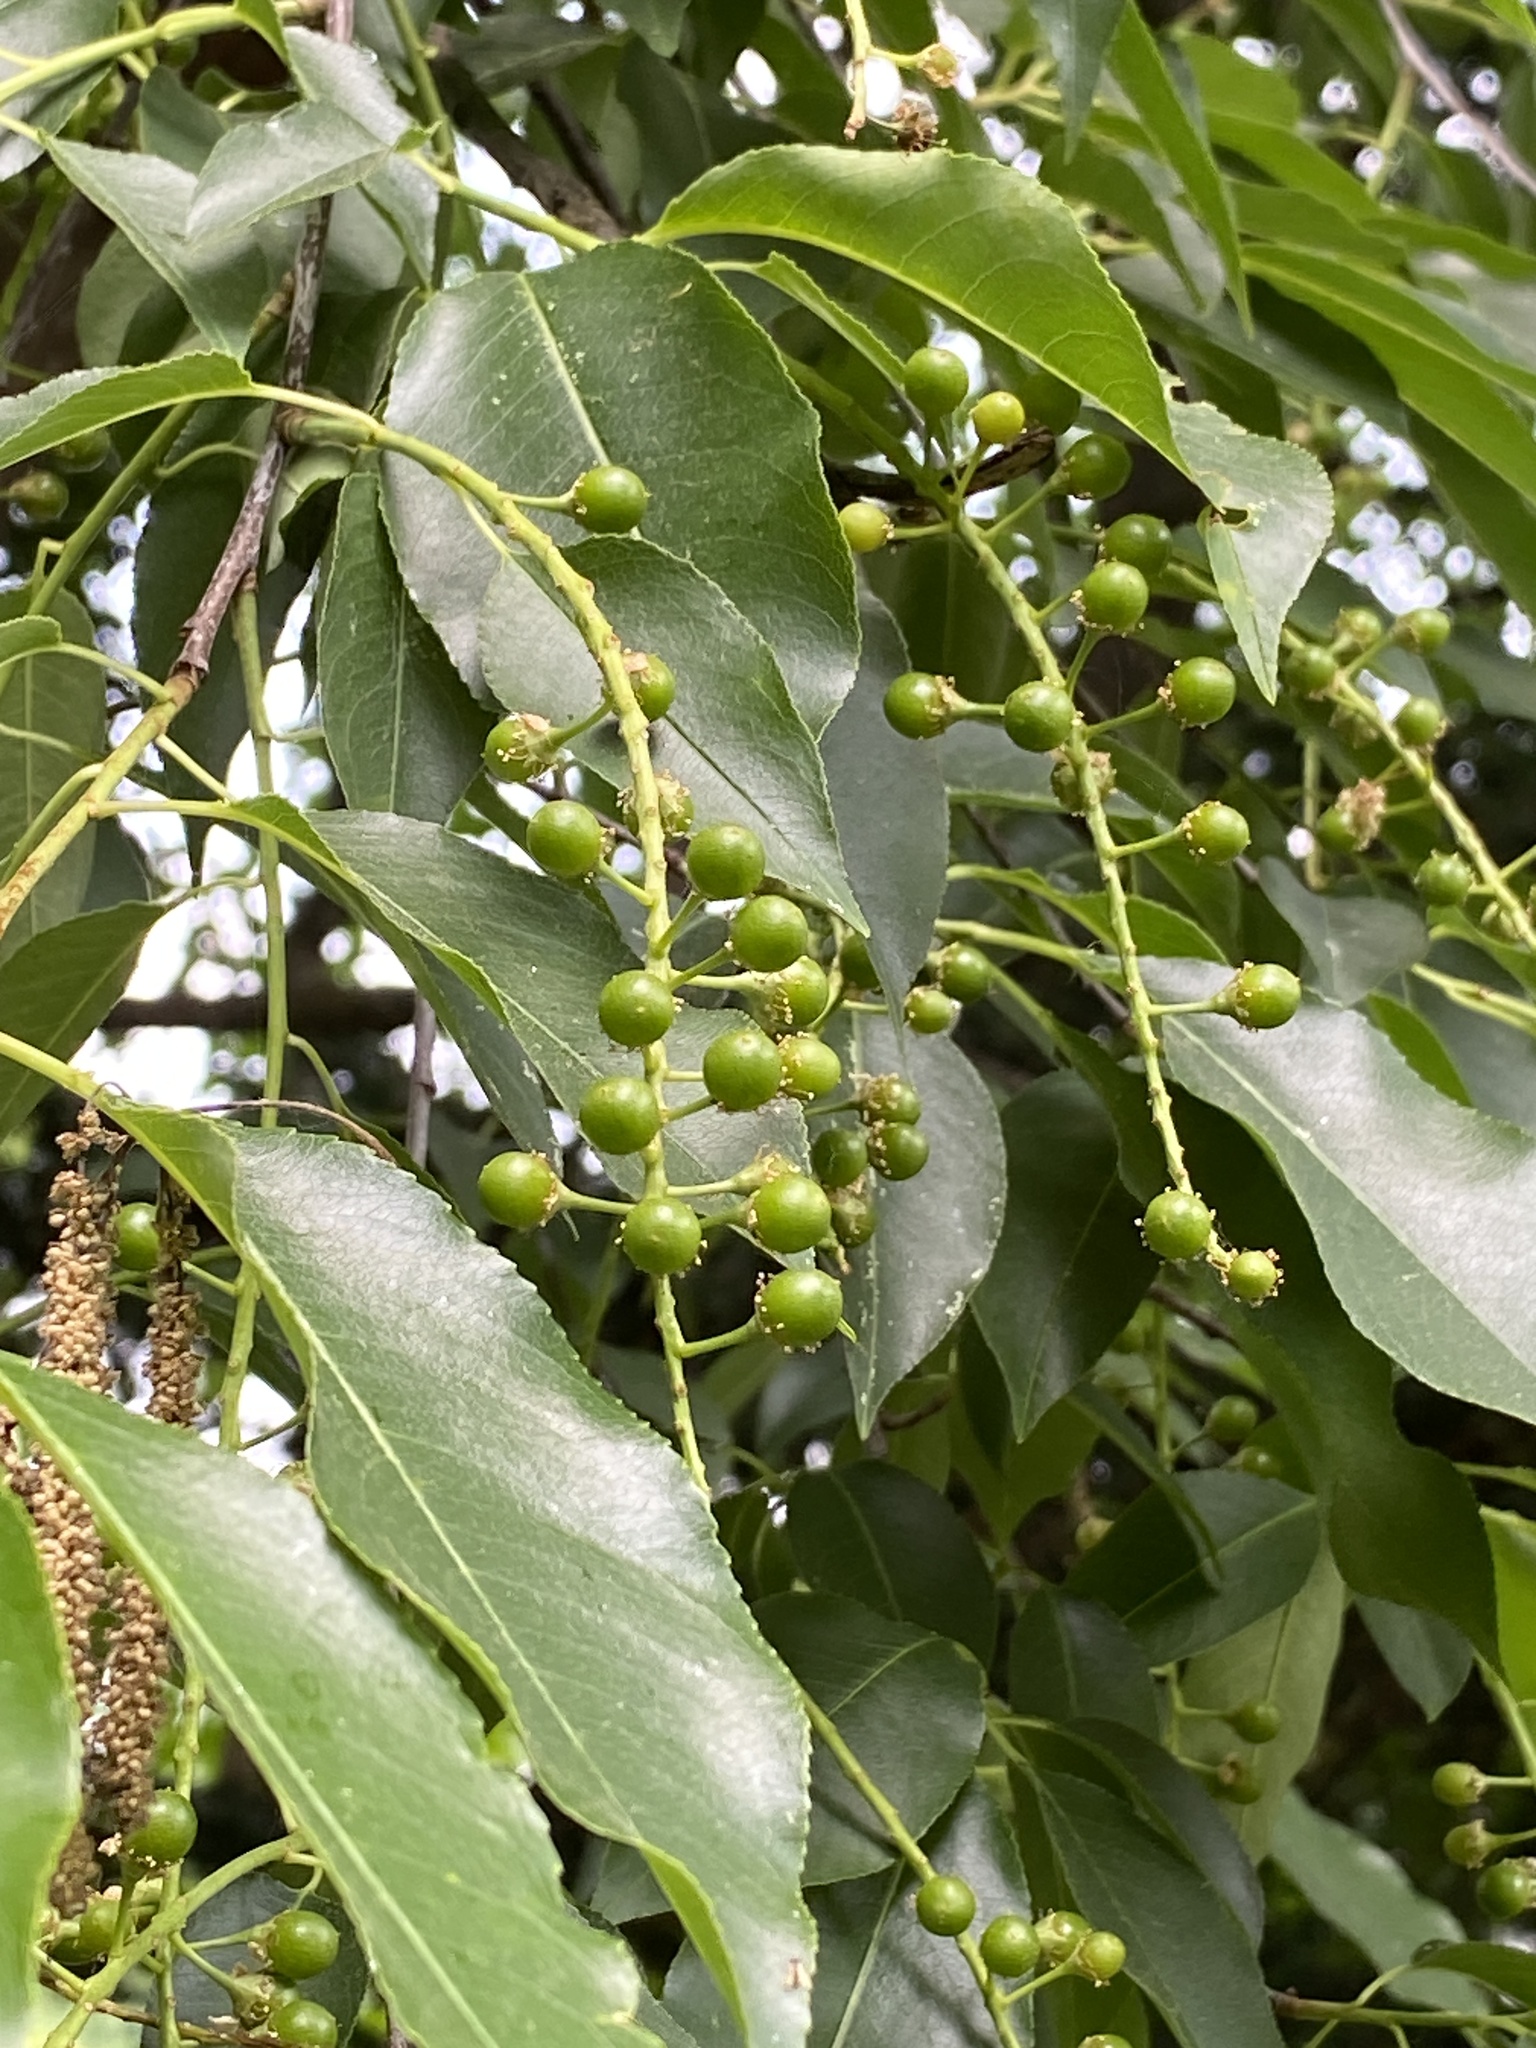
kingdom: Plantae
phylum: Tracheophyta
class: Magnoliopsida
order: Rosales
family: Rosaceae
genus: Prunus
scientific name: Prunus serotina
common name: Black cherry
